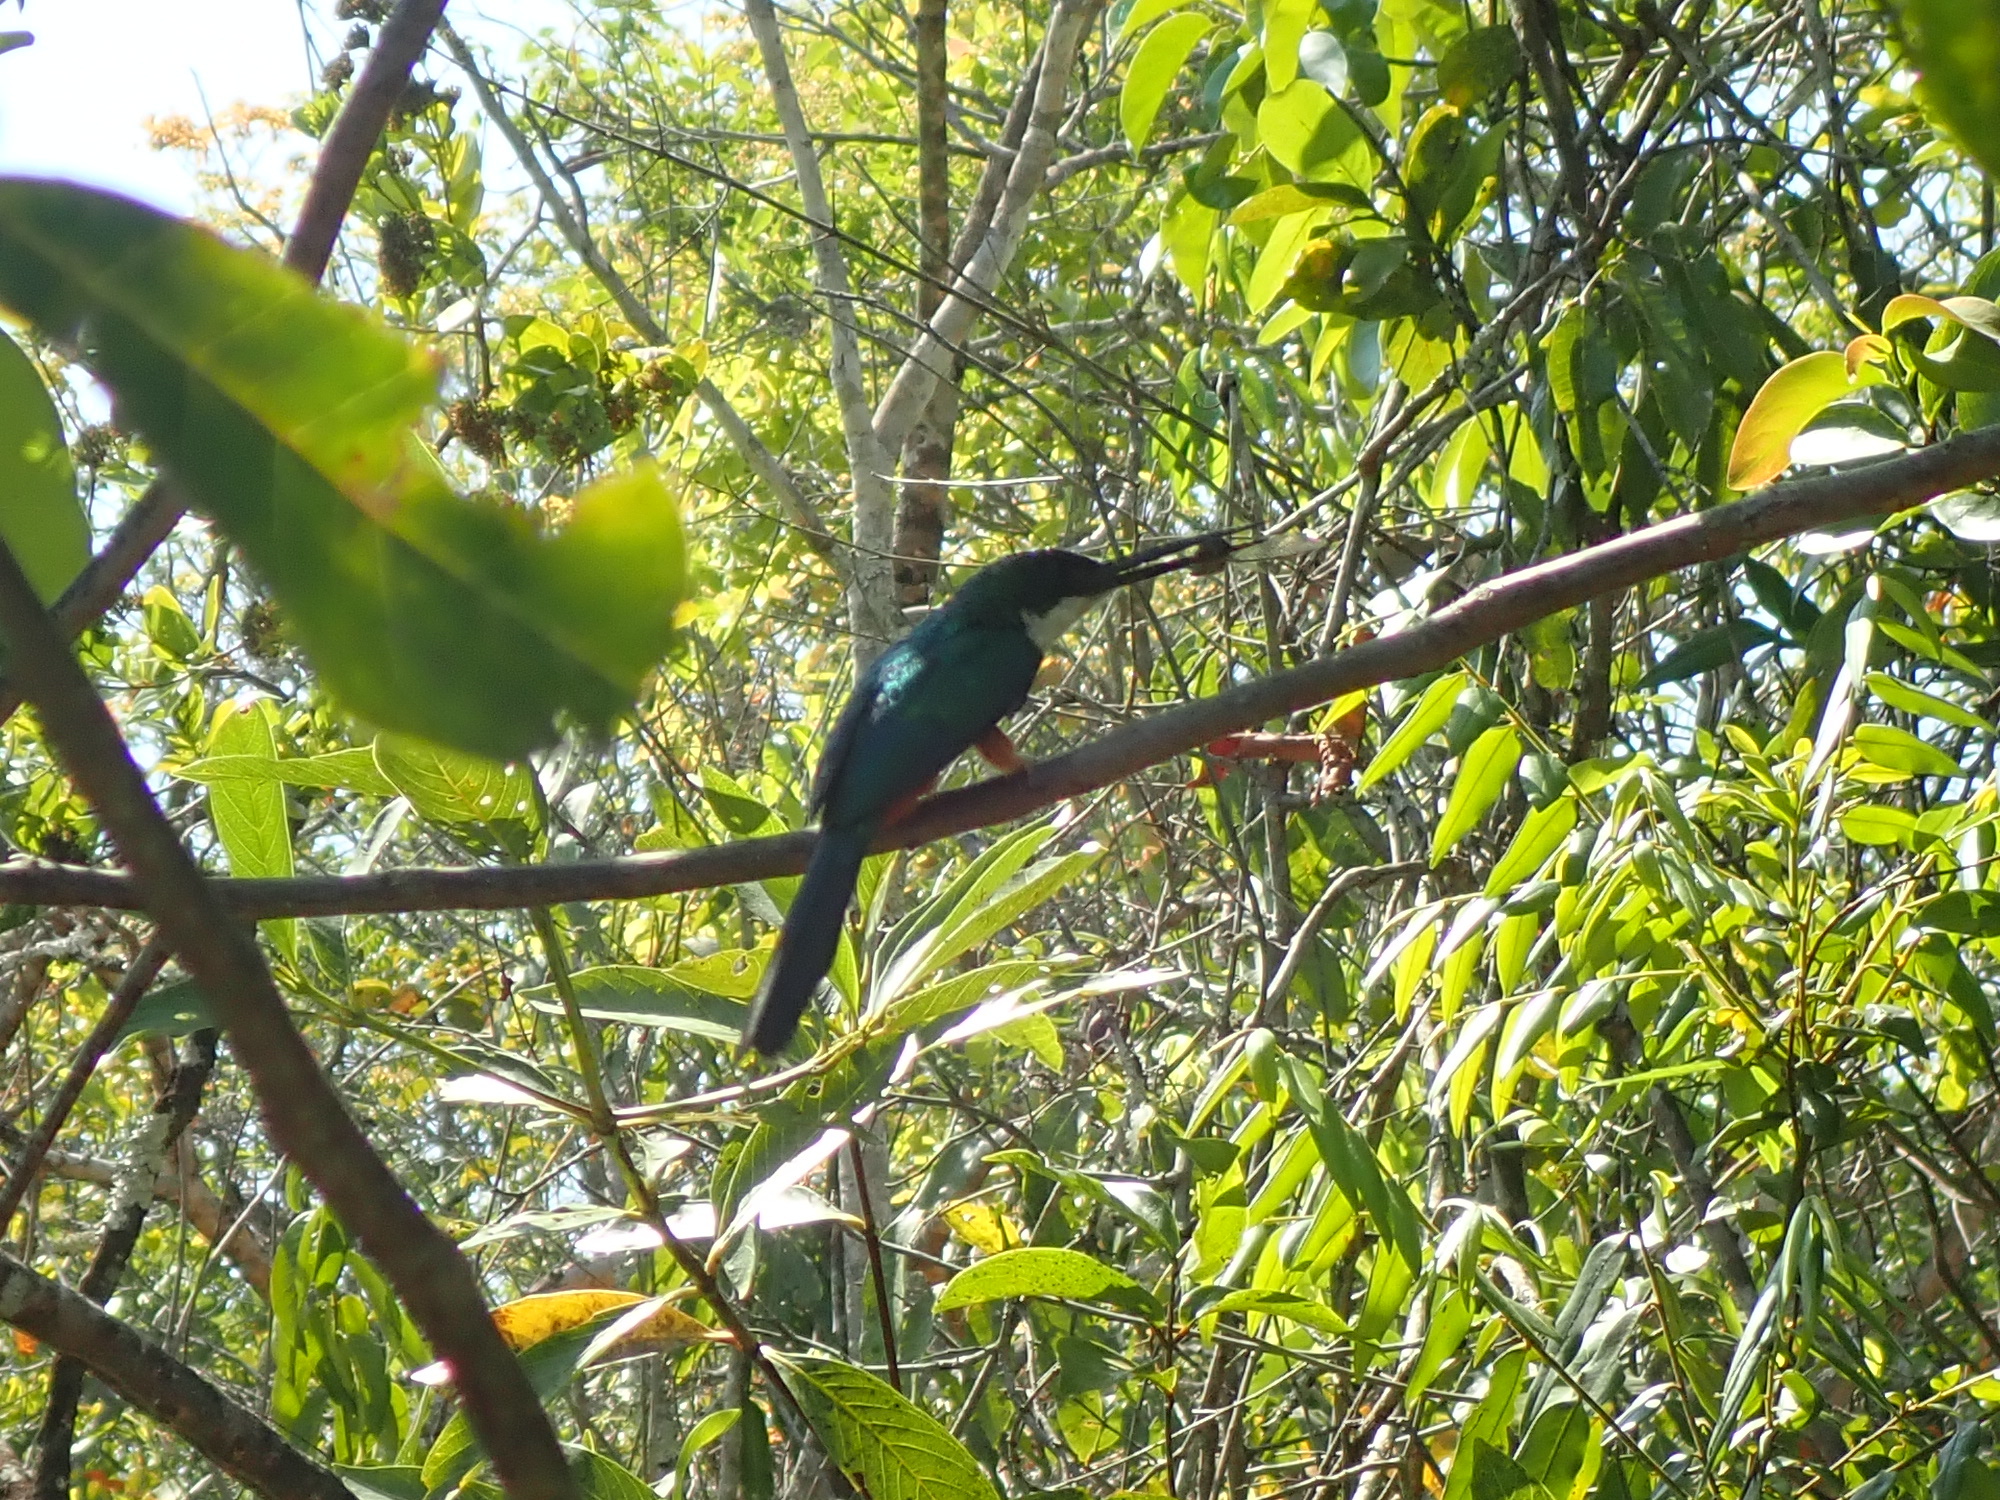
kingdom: Animalia
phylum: Chordata
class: Aves
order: Piciformes
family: Galbulidae
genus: Galbula
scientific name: Galbula ruficauda
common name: Rufous-tailed jacamar
